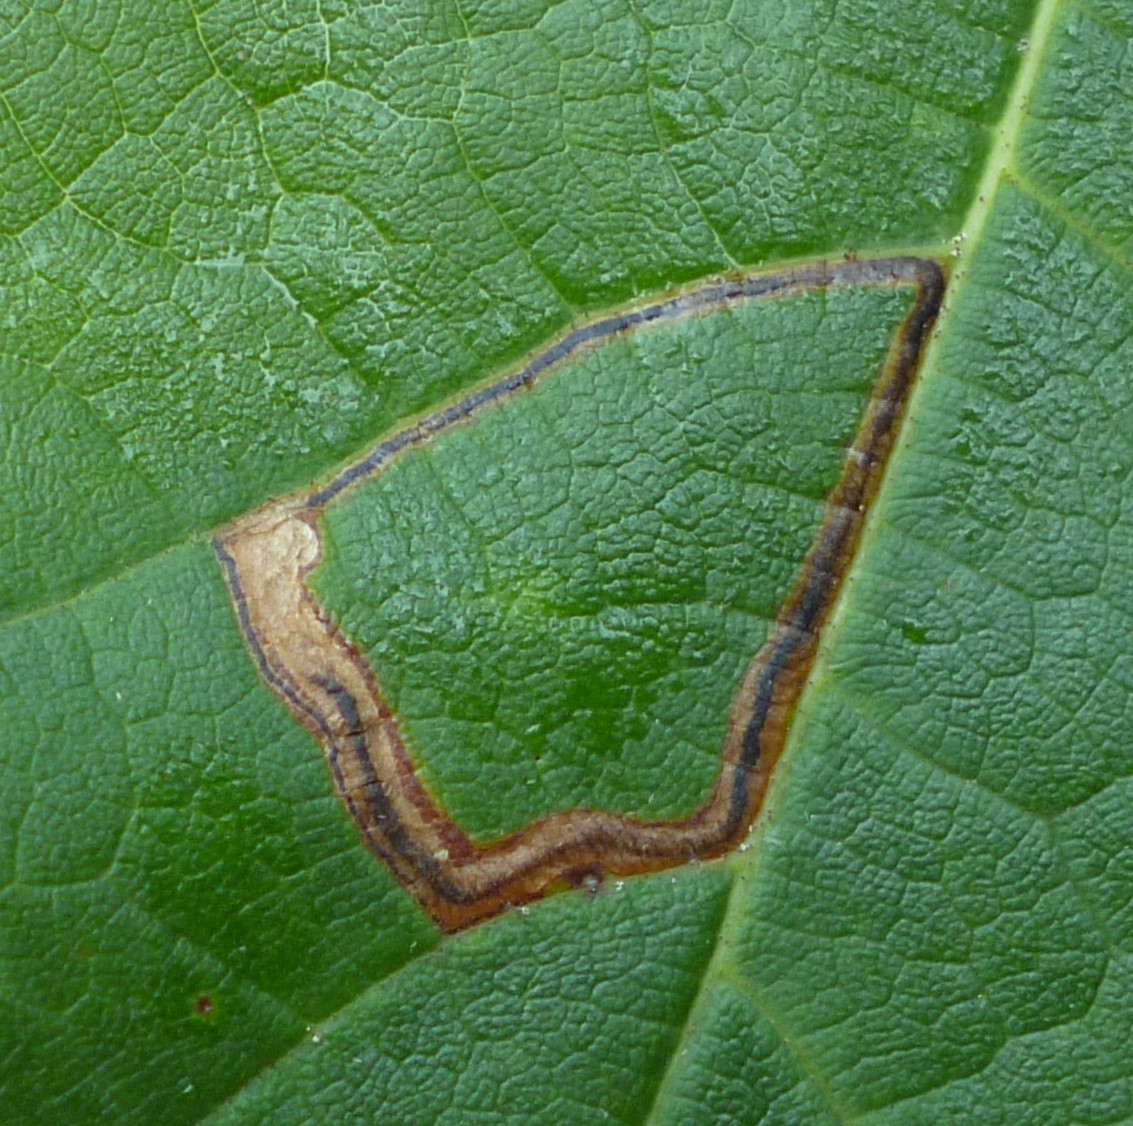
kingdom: Animalia
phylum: Arthropoda
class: Insecta
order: Lepidoptera
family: Nepticulidae
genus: Glaucolepis
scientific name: Glaucolepis saccharella
